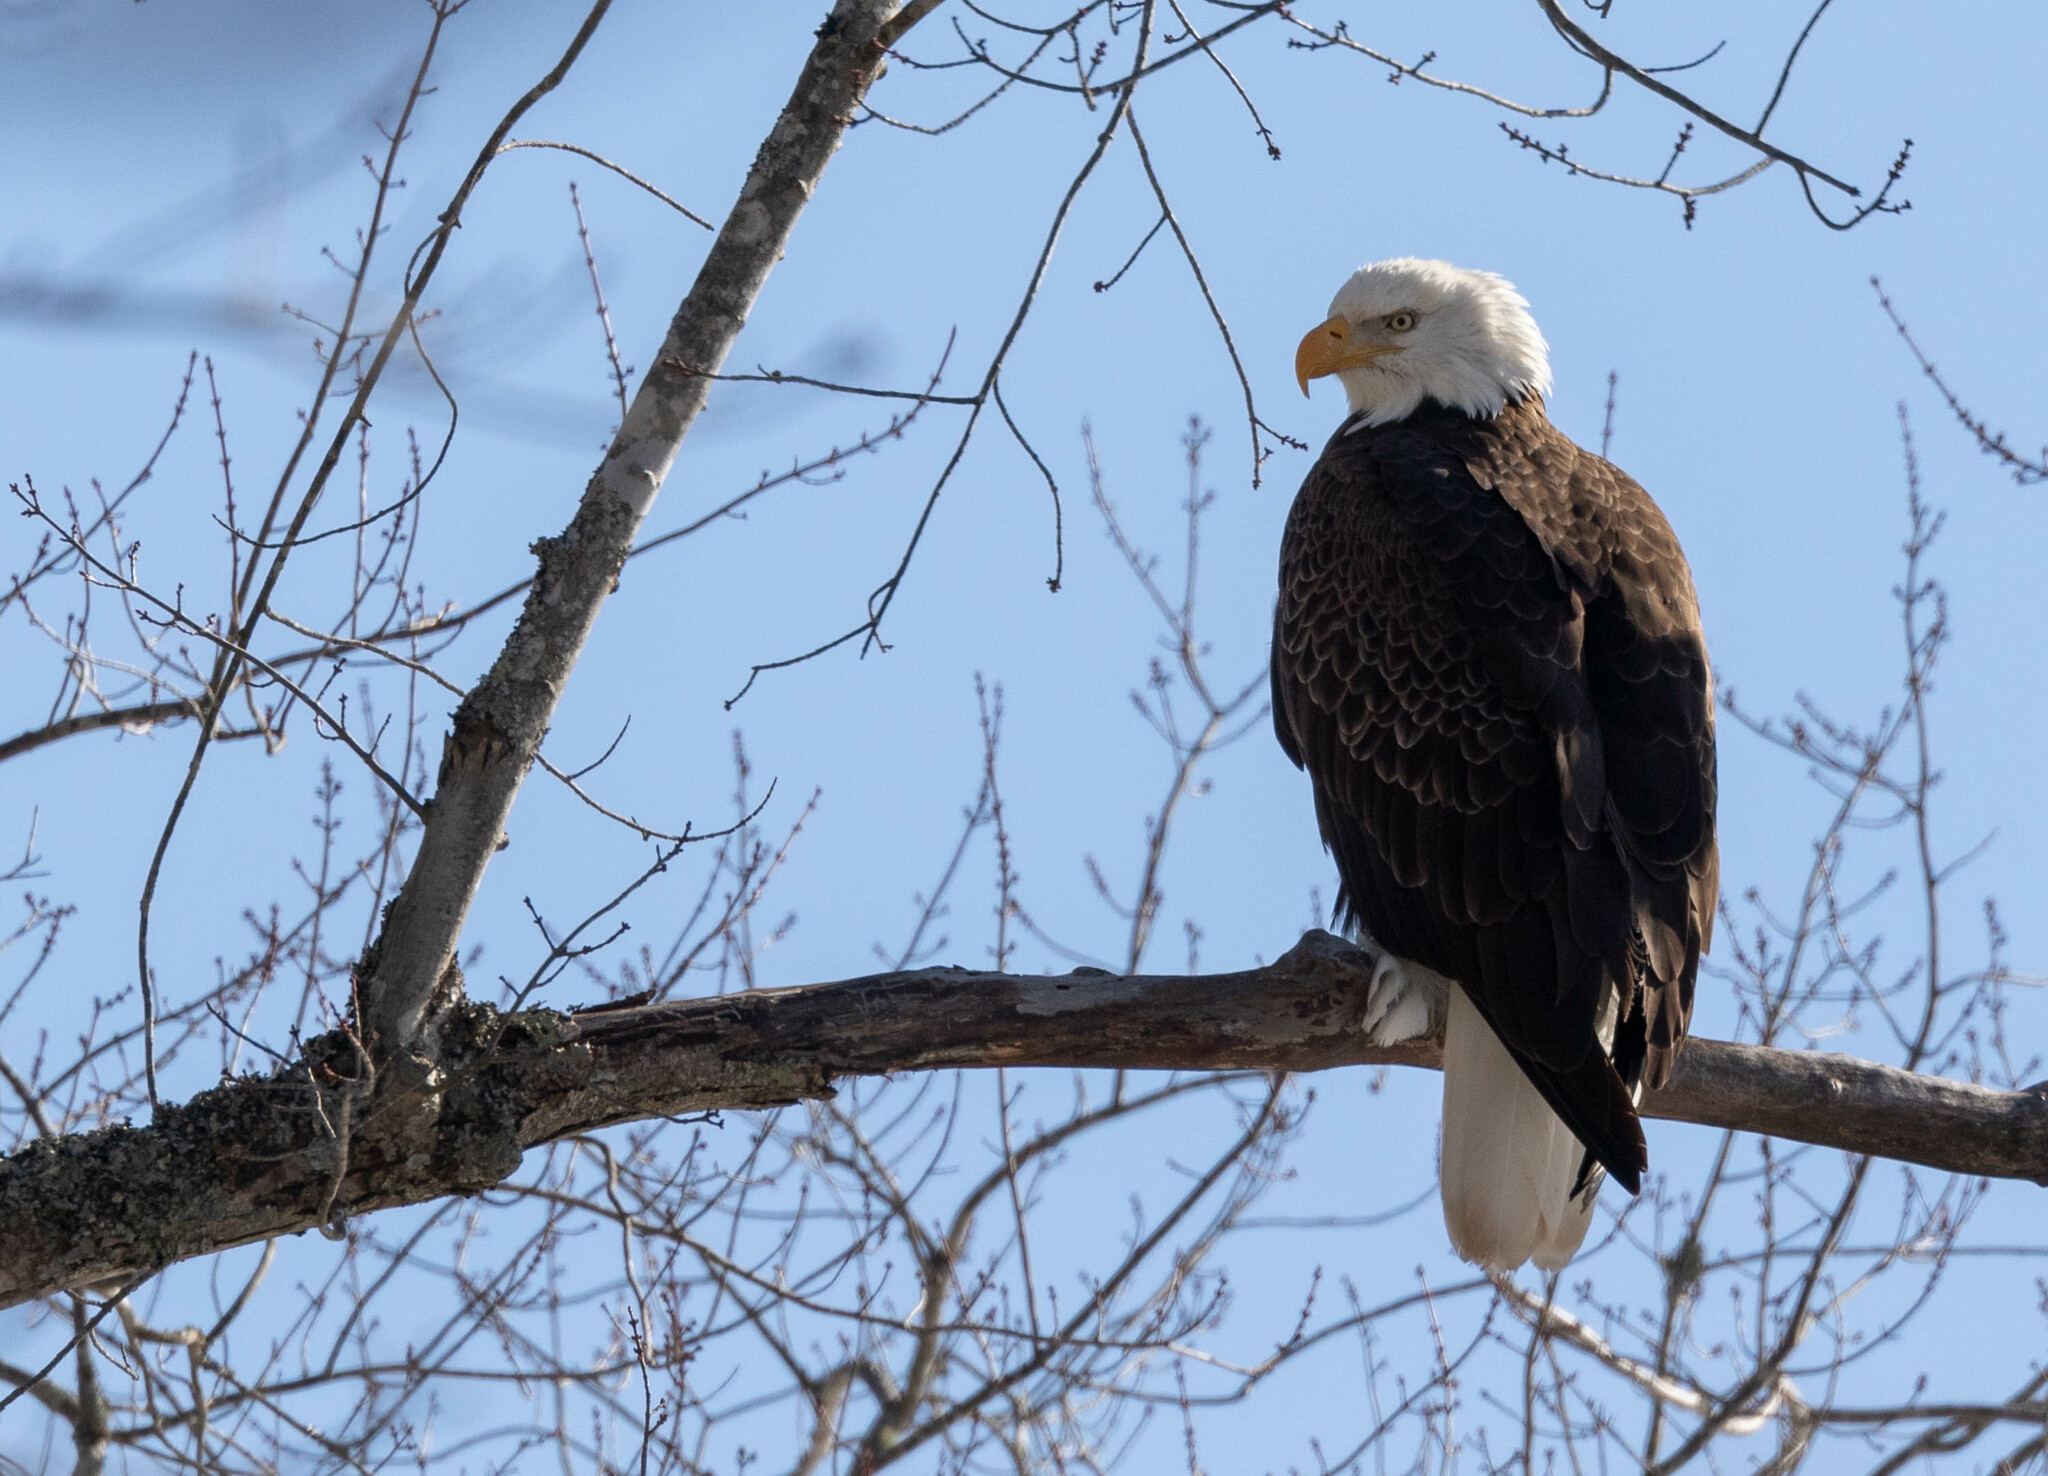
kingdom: Animalia
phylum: Chordata
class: Aves
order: Accipitriformes
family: Accipitridae
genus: Haliaeetus
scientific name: Haliaeetus leucocephalus
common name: Bald eagle
